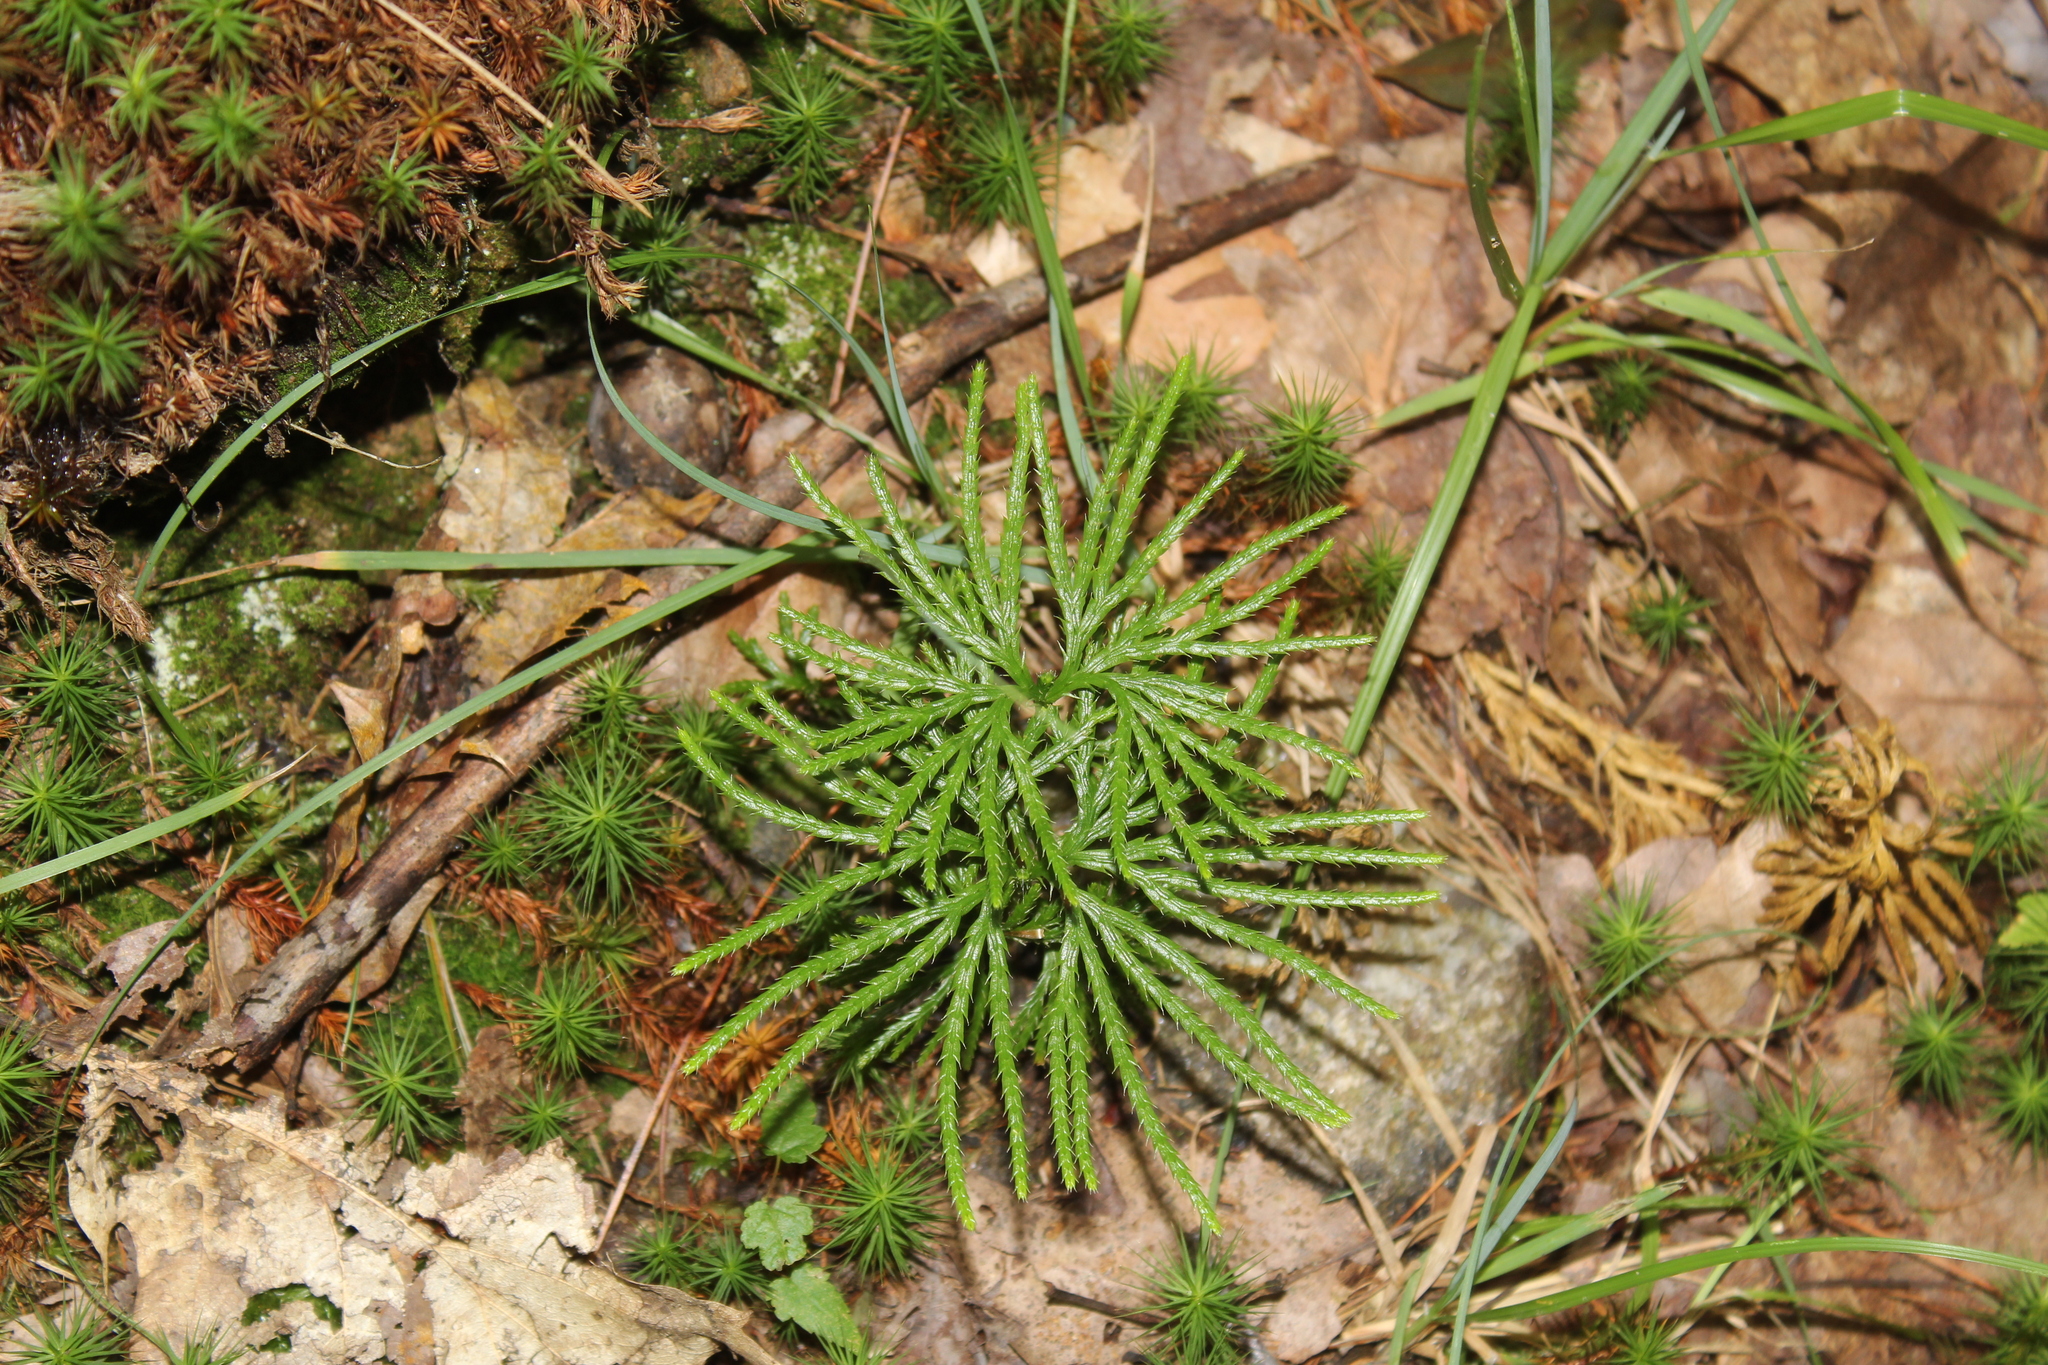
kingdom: Plantae
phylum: Tracheophyta
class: Lycopodiopsida
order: Lycopodiales
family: Lycopodiaceae
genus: Diphasiastrum
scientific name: Diphasiastrum digitatum
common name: Southern running-pine
